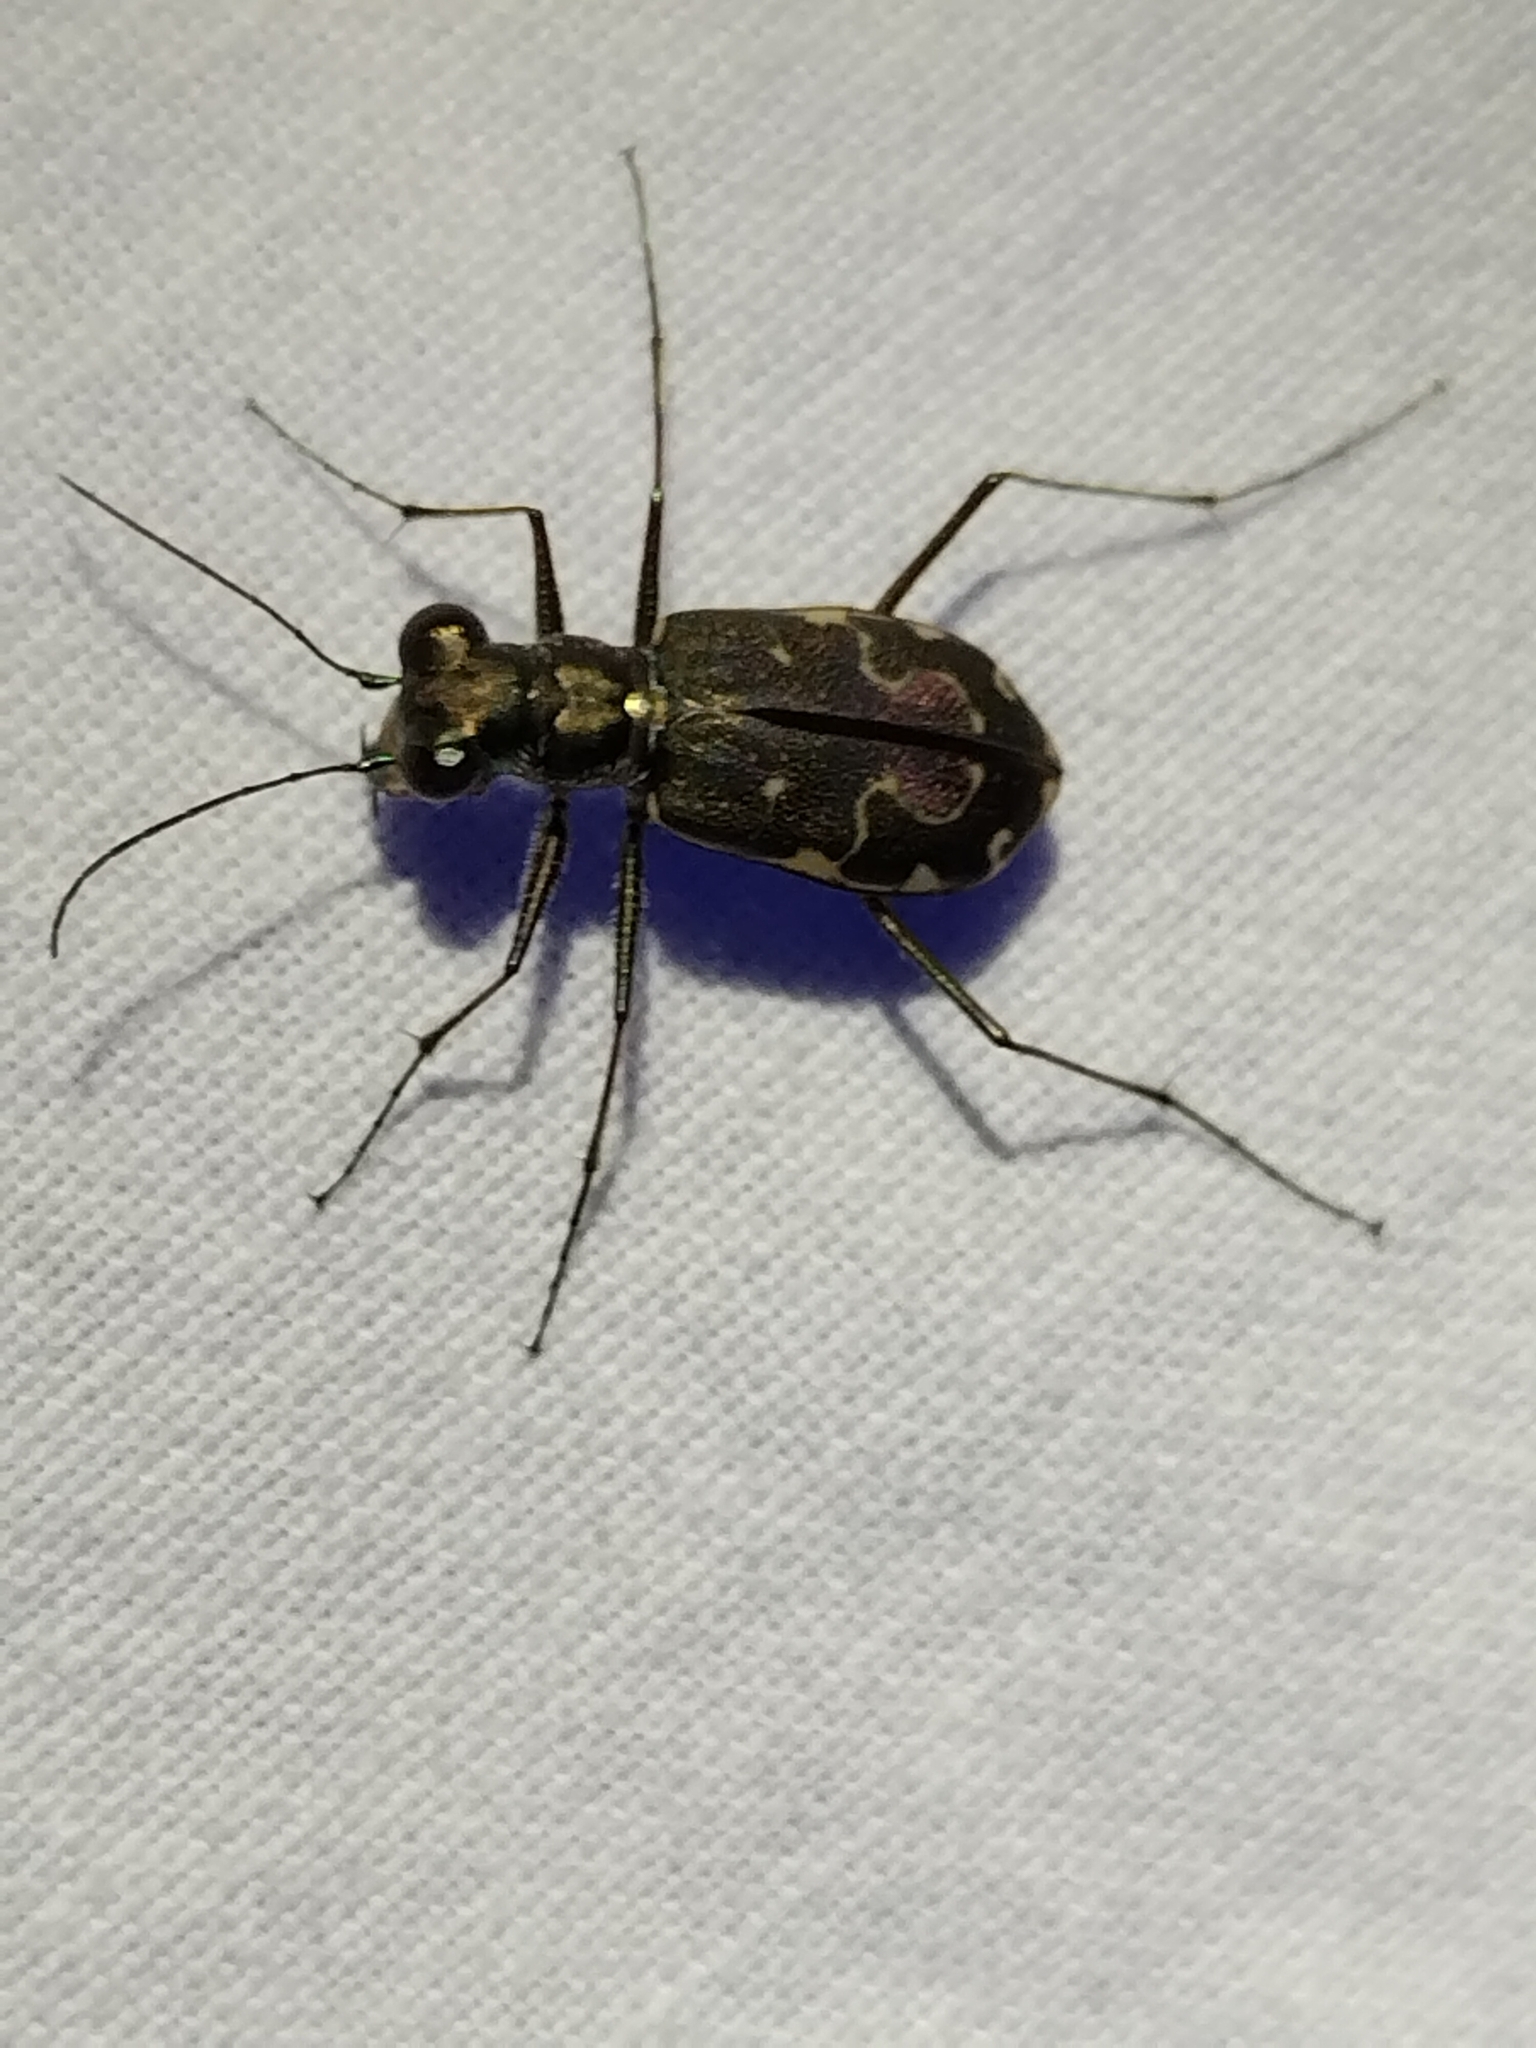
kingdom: Animalia
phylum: Arthropoda
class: Insecta
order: Coleoptera
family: Carabidae
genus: Cicindela
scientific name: Cicindela trifasciata
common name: Mudflat tiger beetle
